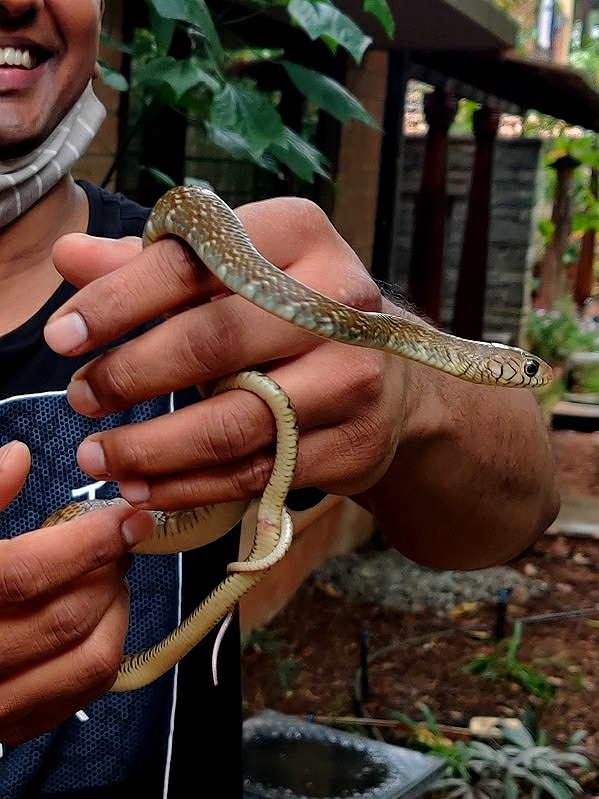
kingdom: Animalia
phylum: Chordata
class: Squamata
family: Colubridae
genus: Ptyas
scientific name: Ptyas mucosa
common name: Oriental ratsnake
